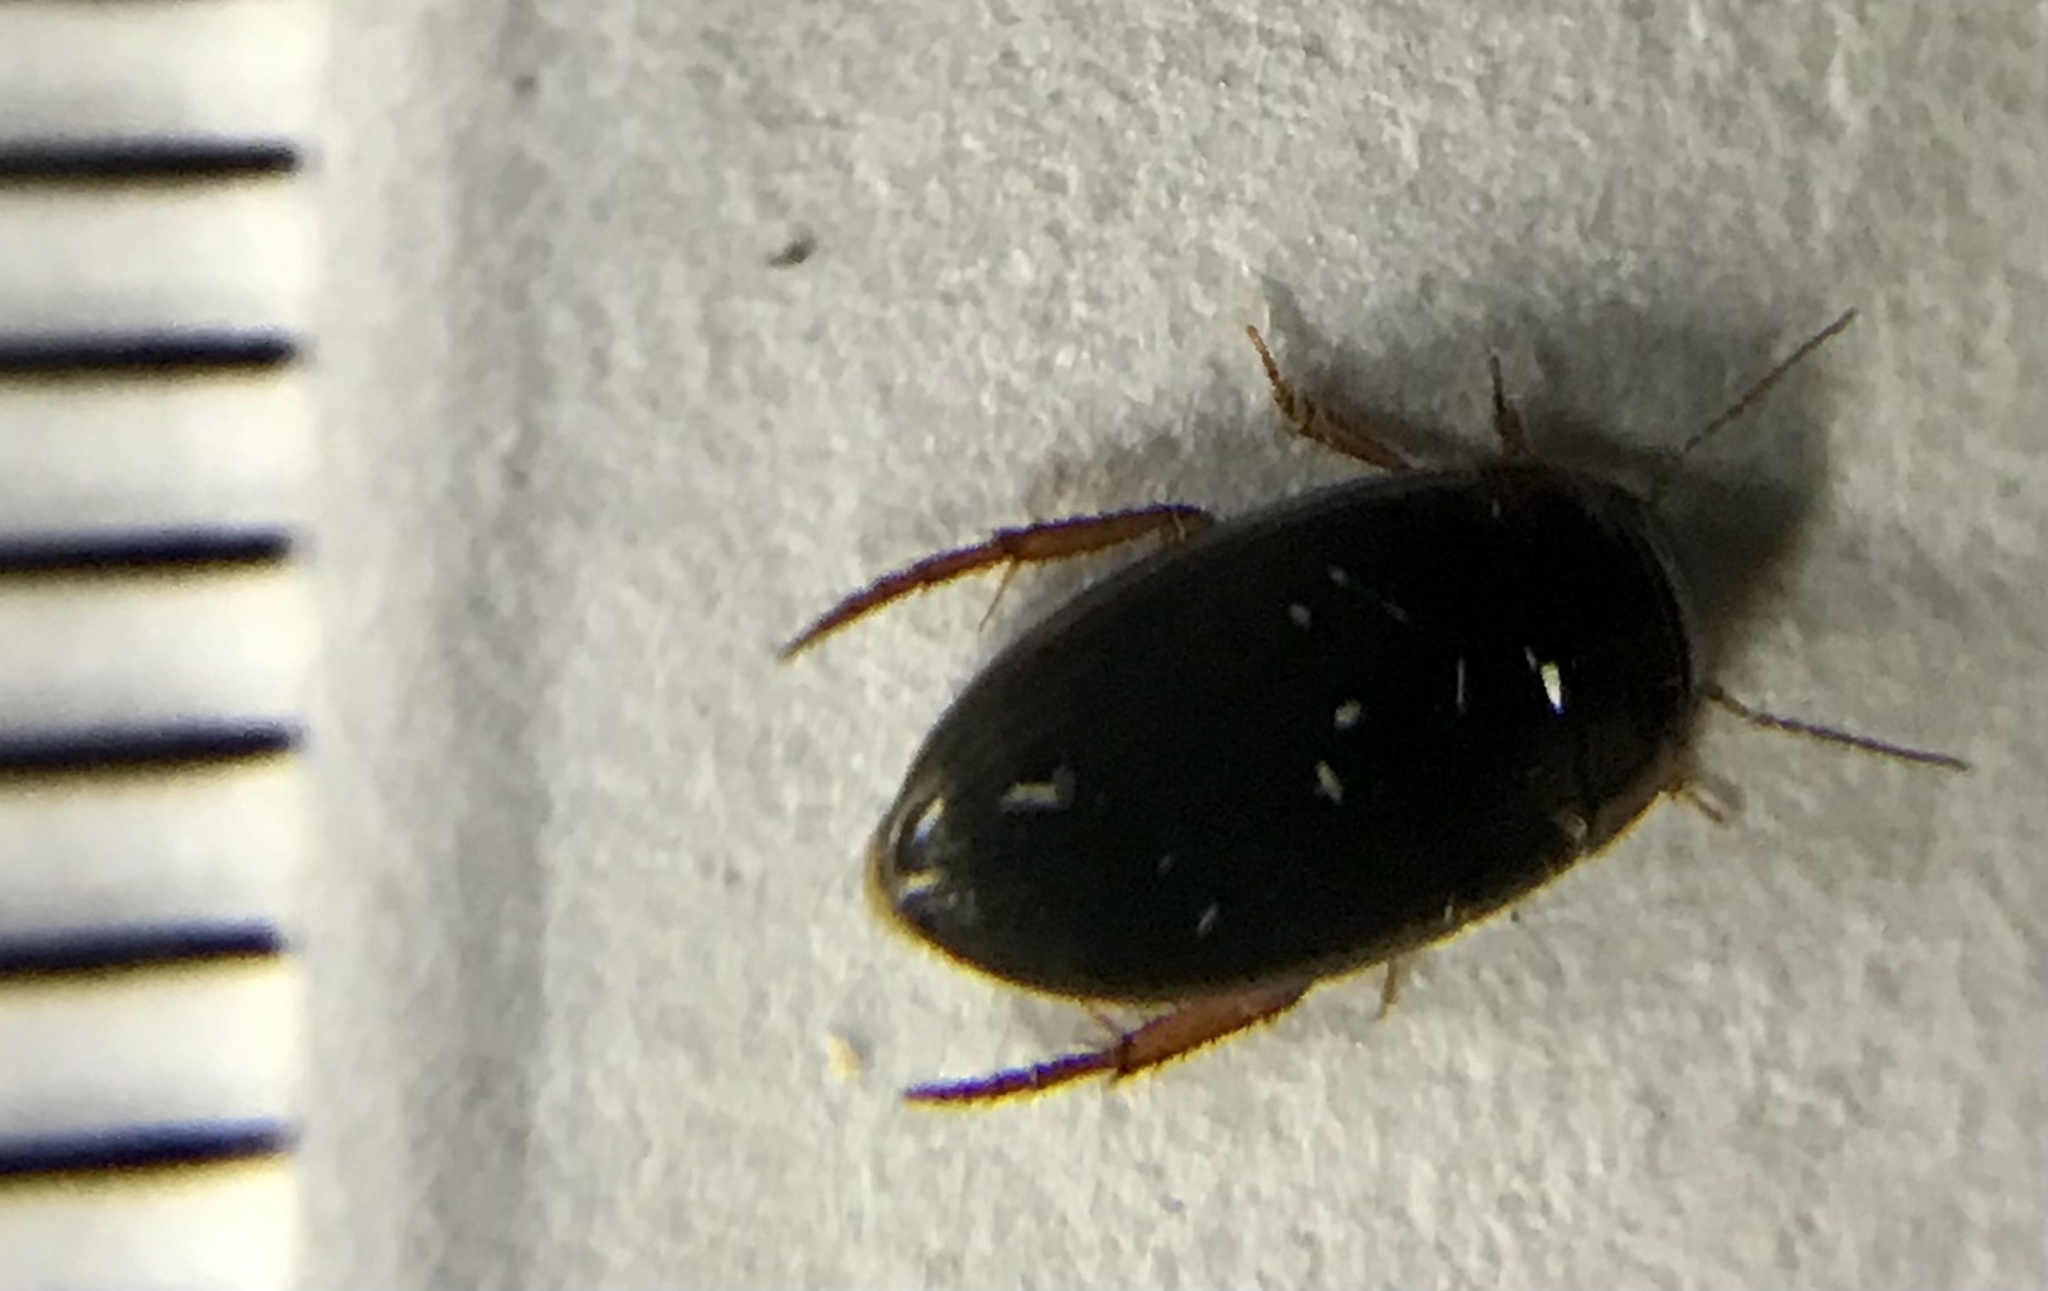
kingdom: Animalia
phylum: Arthropoda
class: Insecta
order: Coleoptera
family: Dytiscidae
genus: Copelatus
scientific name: Copelatus
